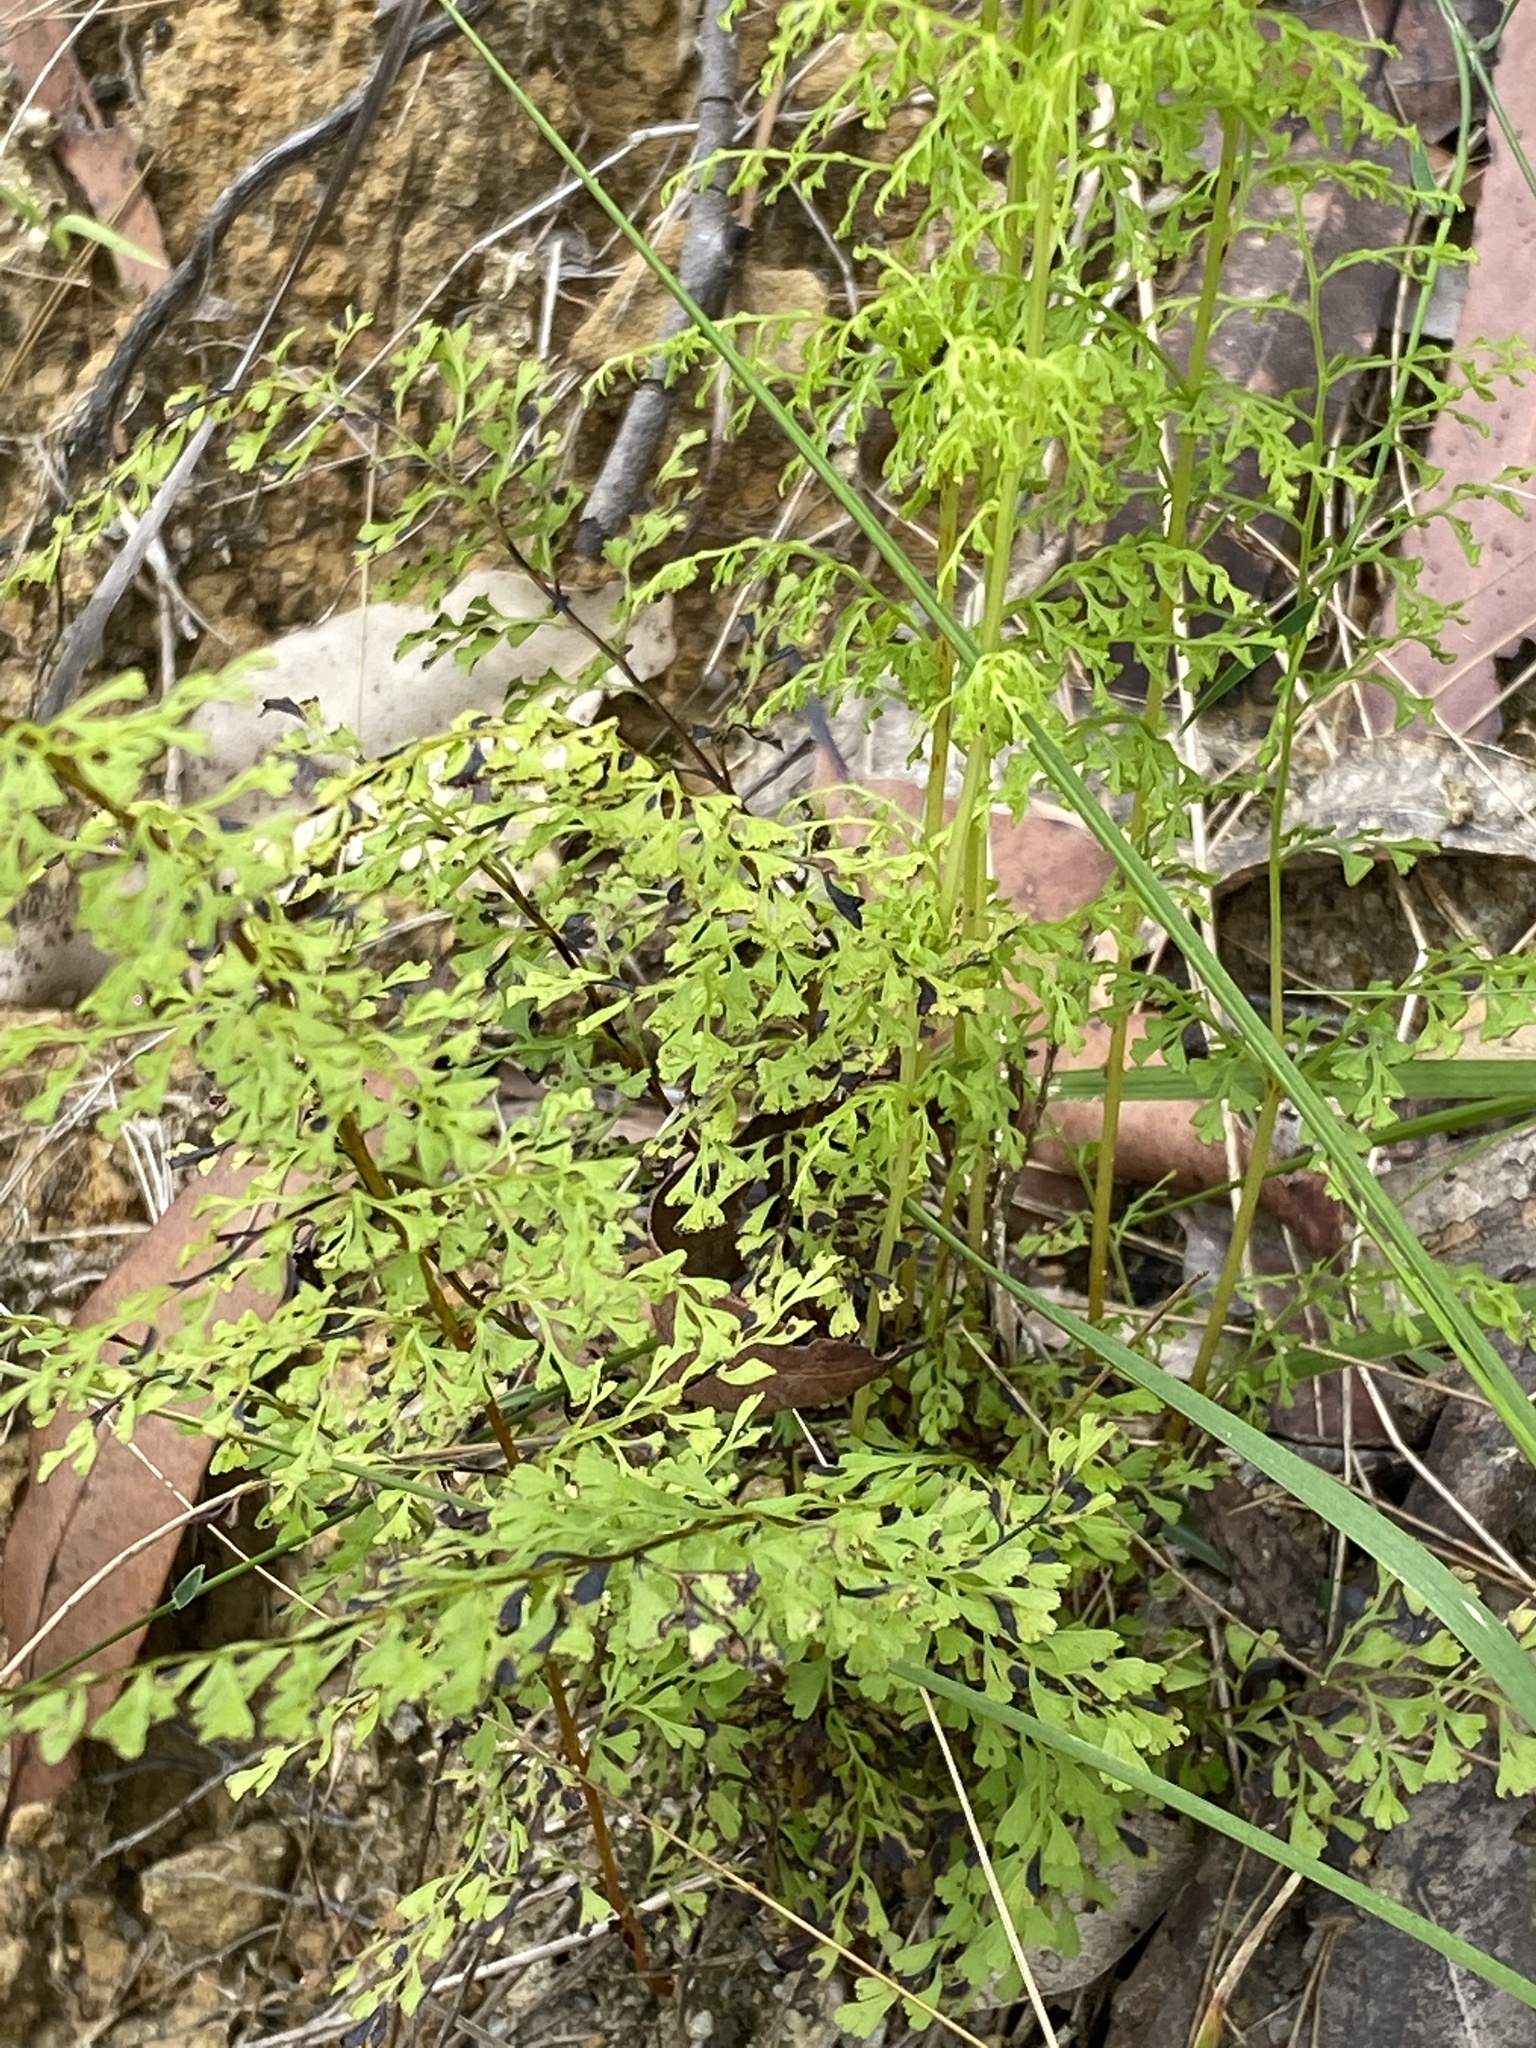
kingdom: Plantae
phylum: Tracheophyta
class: Polypodiopsida
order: Polypodiales
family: Lindsaeaceae
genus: Lindsaea
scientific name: Lindsaea microphylla
